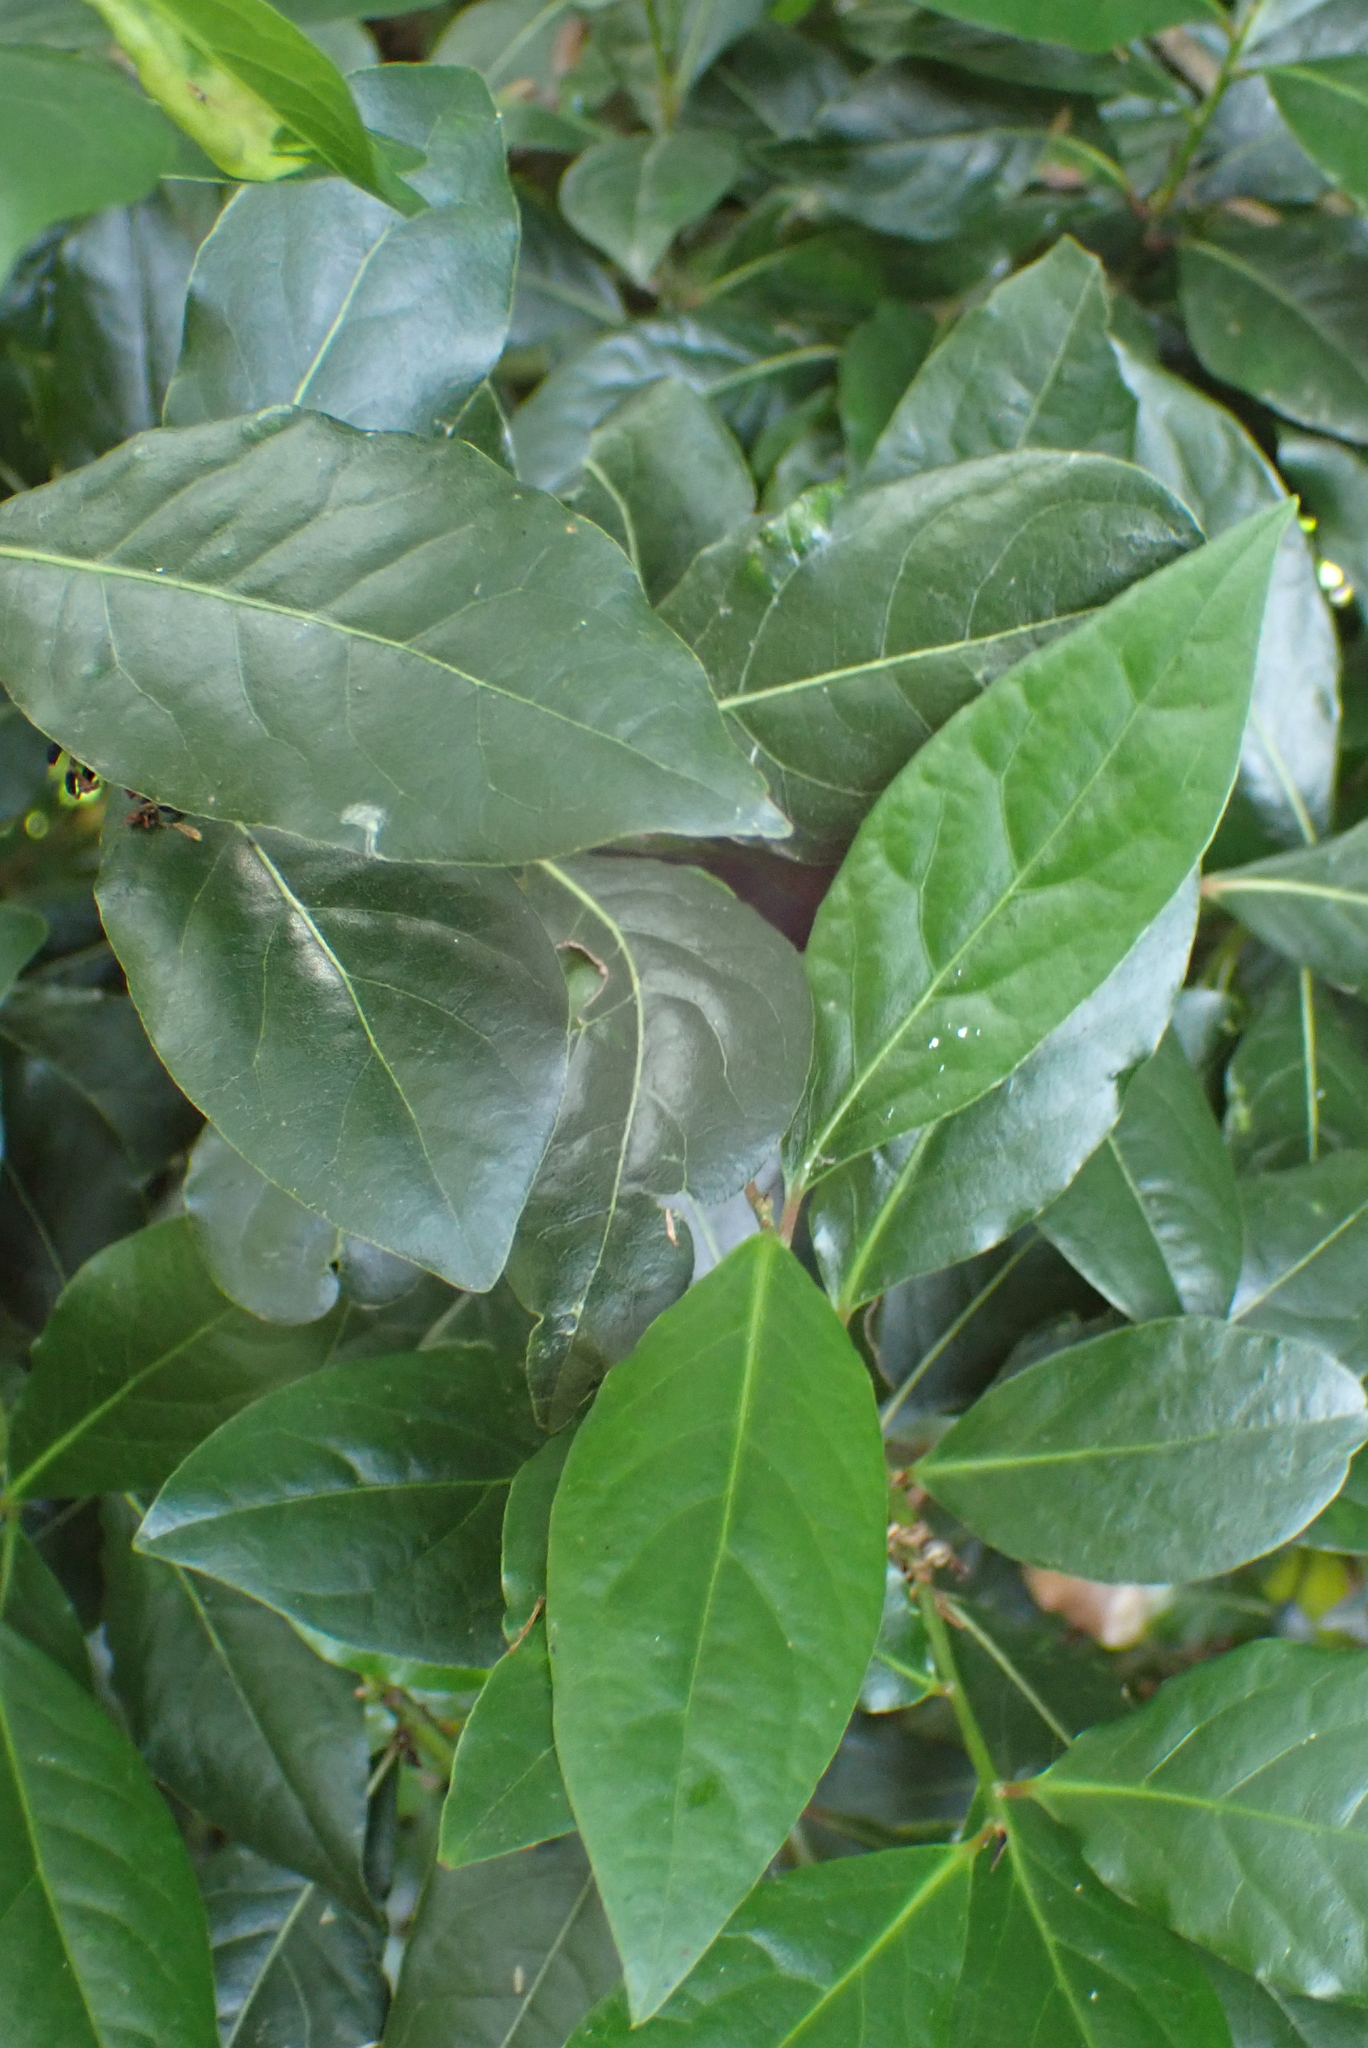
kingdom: Plantae
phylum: Tracheophyta
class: Magnoliopsida
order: Laurales
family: Lauraceae
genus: Laurus
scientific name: Laurus nobilis
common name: Bay
